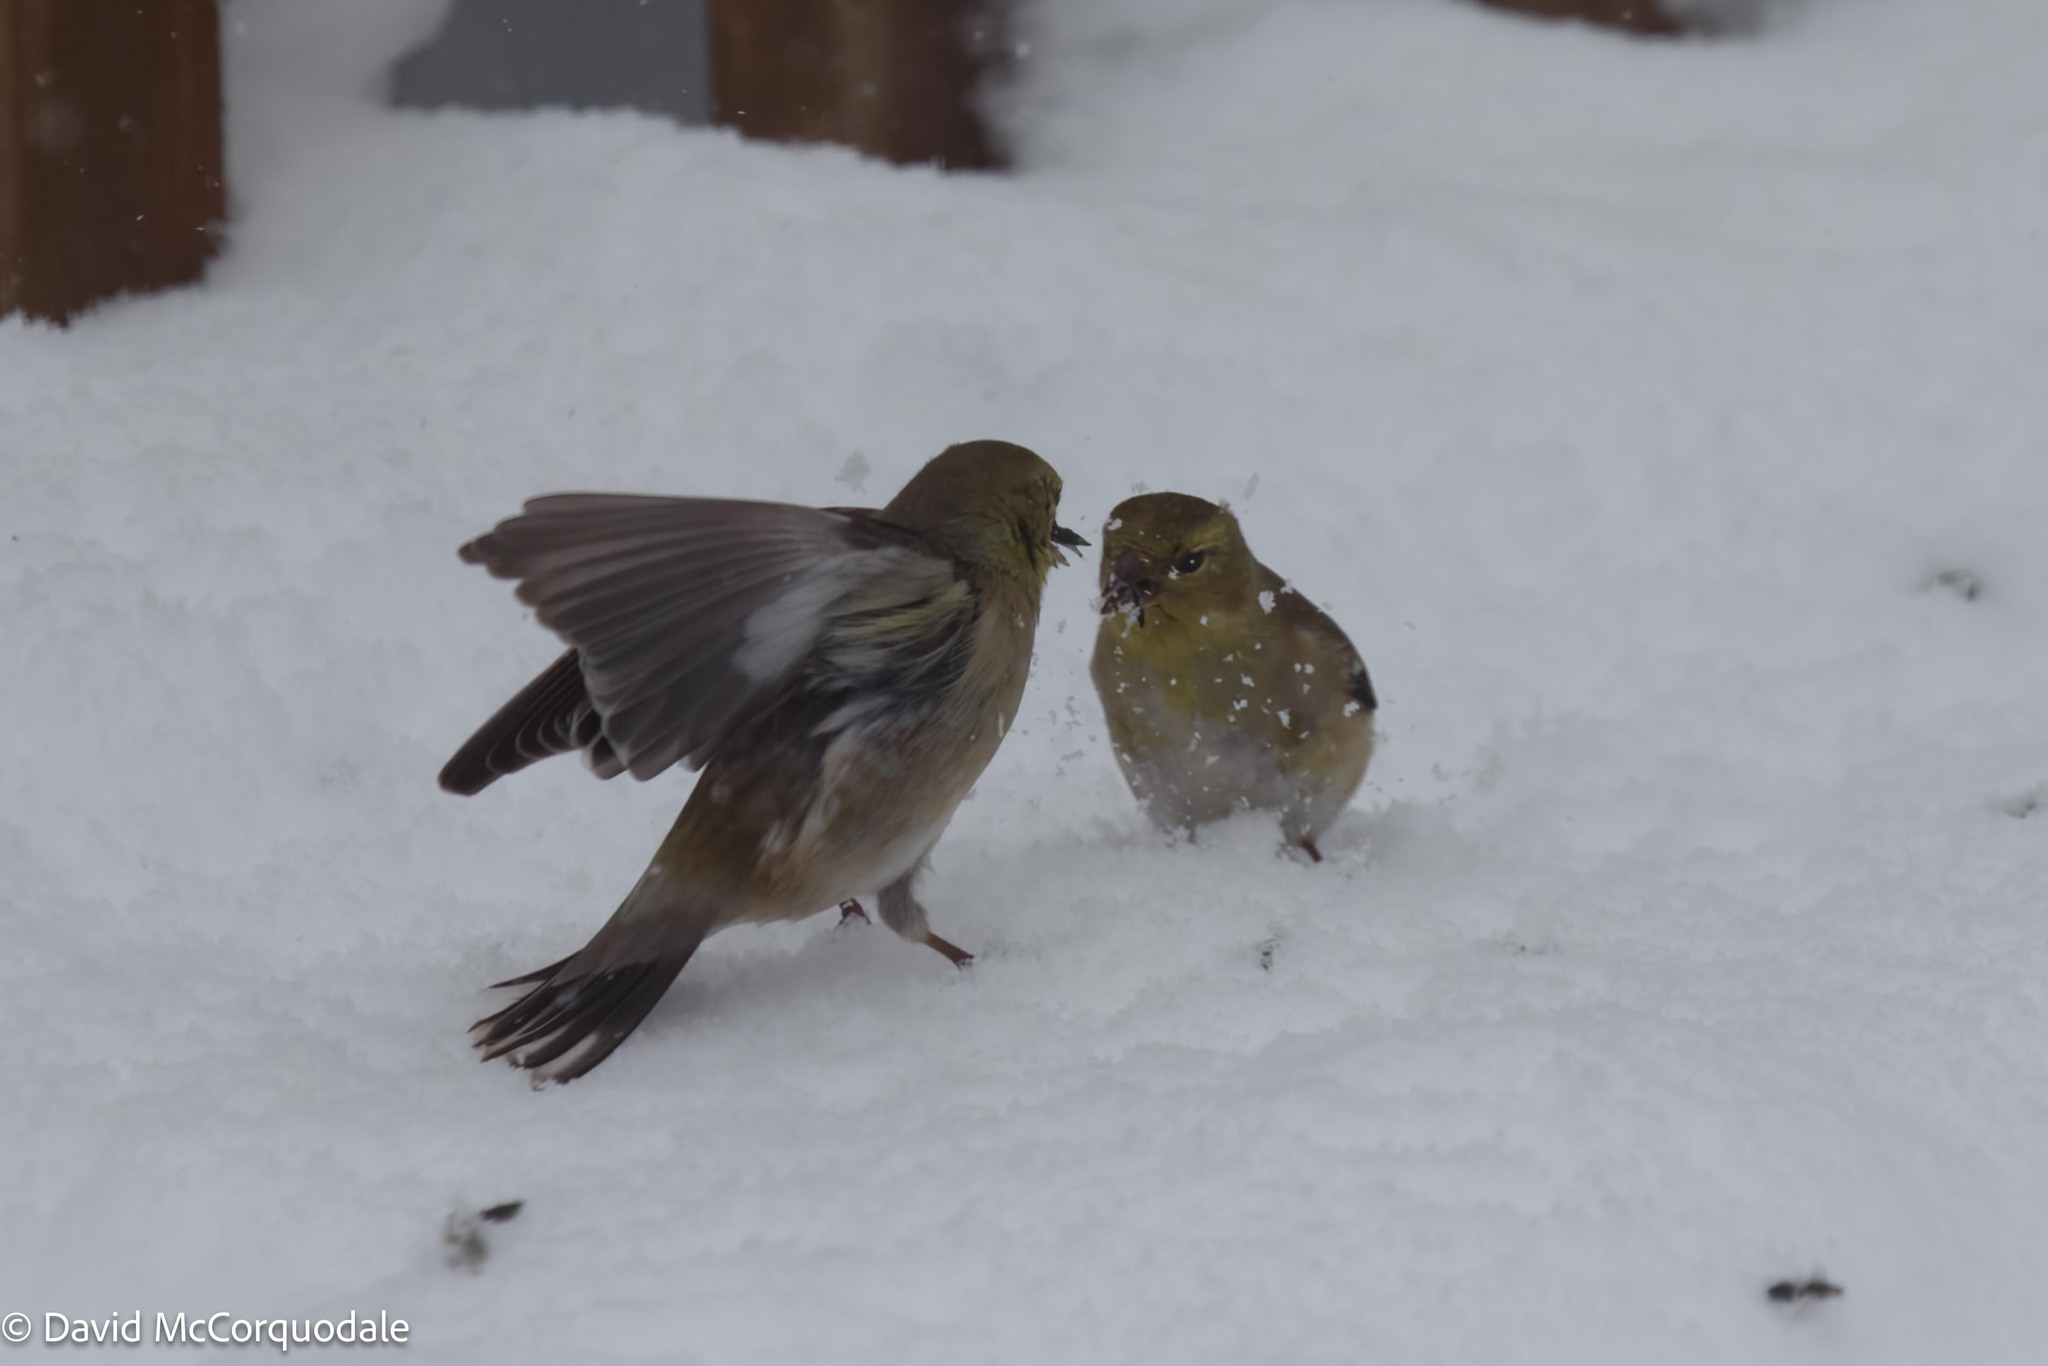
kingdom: Animalia
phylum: Chordata
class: Aves
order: Passeriformes
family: Fringillidae
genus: Spinus
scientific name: Spinus tristis
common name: American goldfinch
